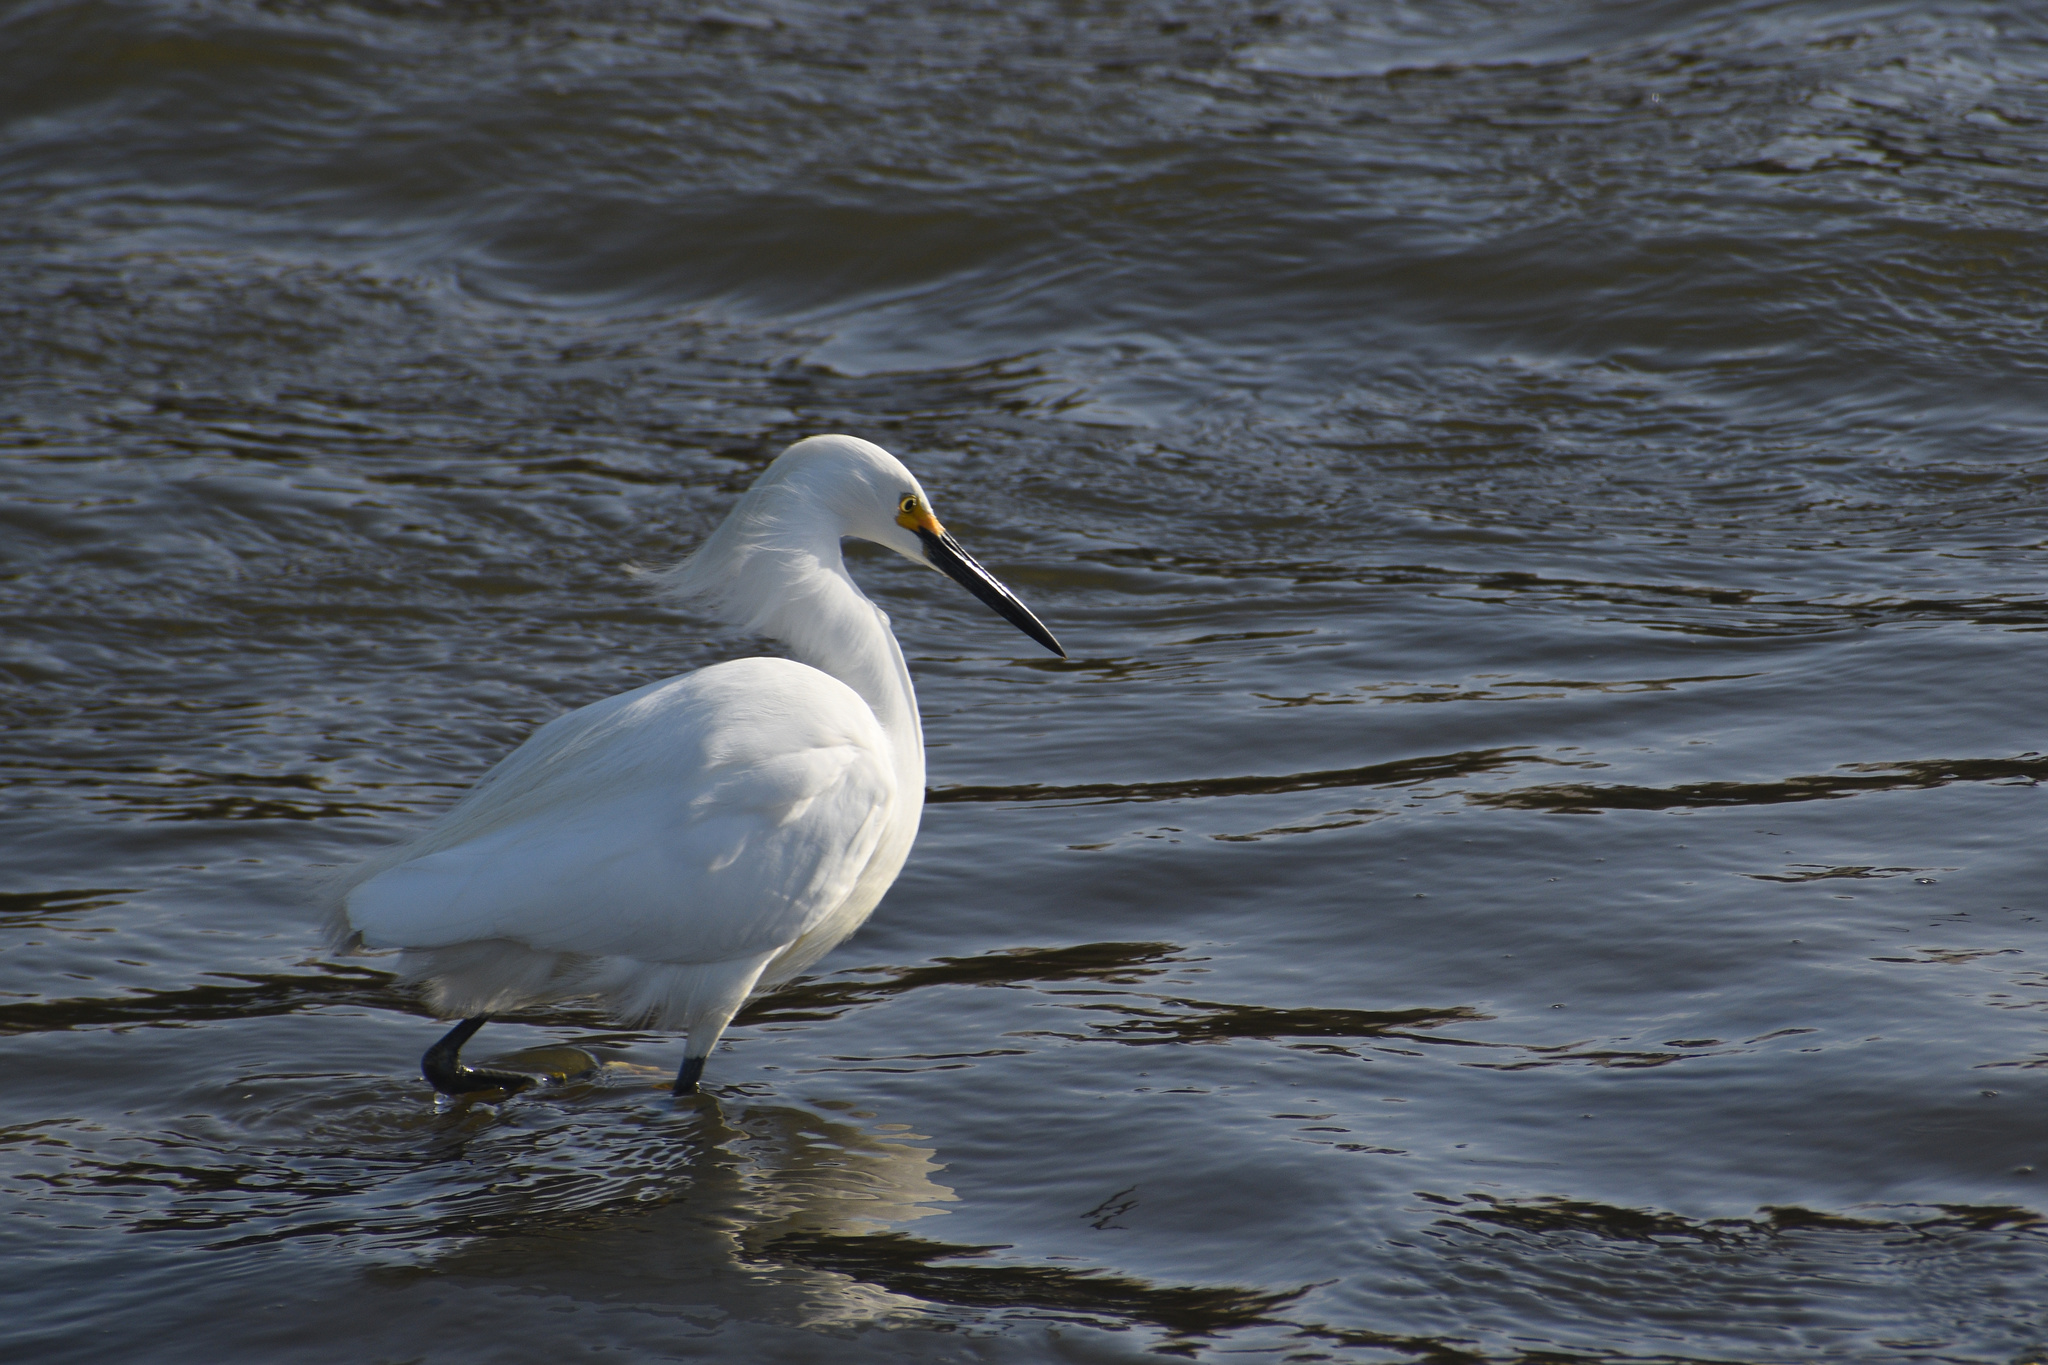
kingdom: Animalia
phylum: Chordata
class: Aves
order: Pelecaniformes
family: Ardeidae
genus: Egretta
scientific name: Egretta thula
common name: Snowy egret
